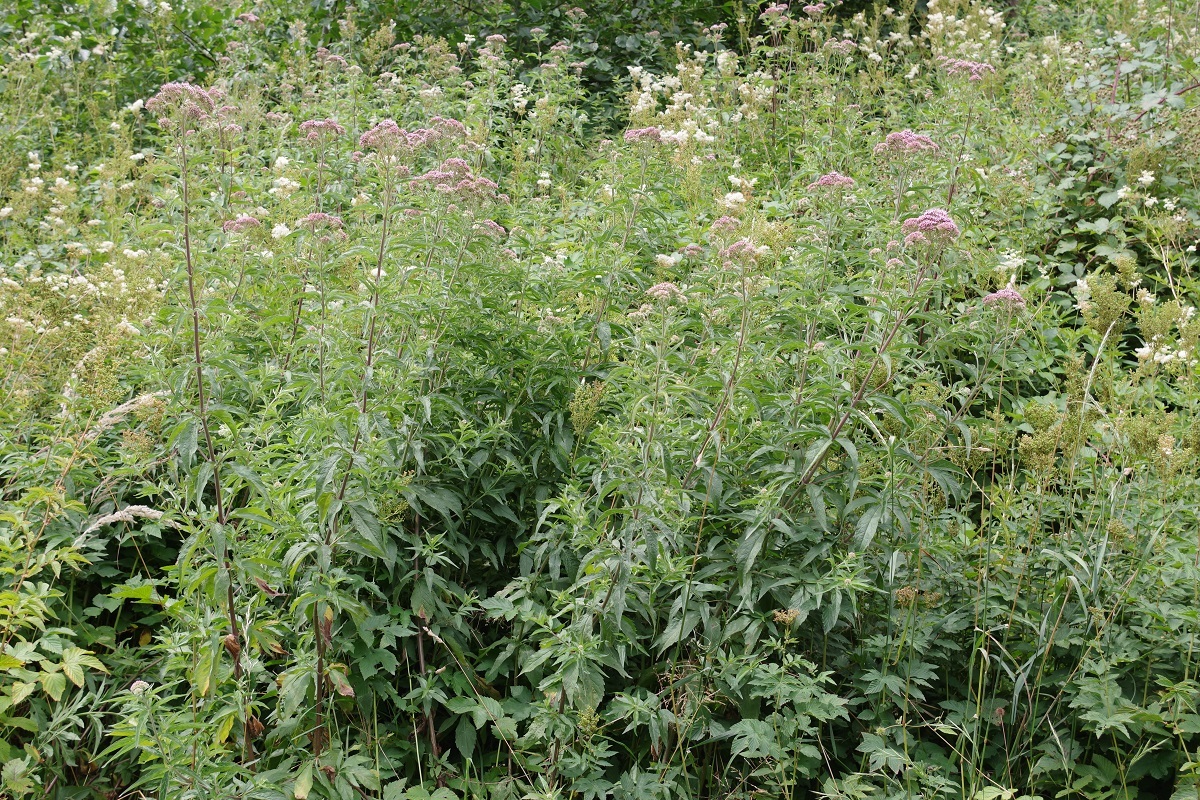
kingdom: Plantae
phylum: Tracheophyta
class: Magnoliopsida
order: Asterales
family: Asteraceae
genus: Eupatorium
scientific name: Eupatorium cannabinum
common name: Hemp-agrimony
